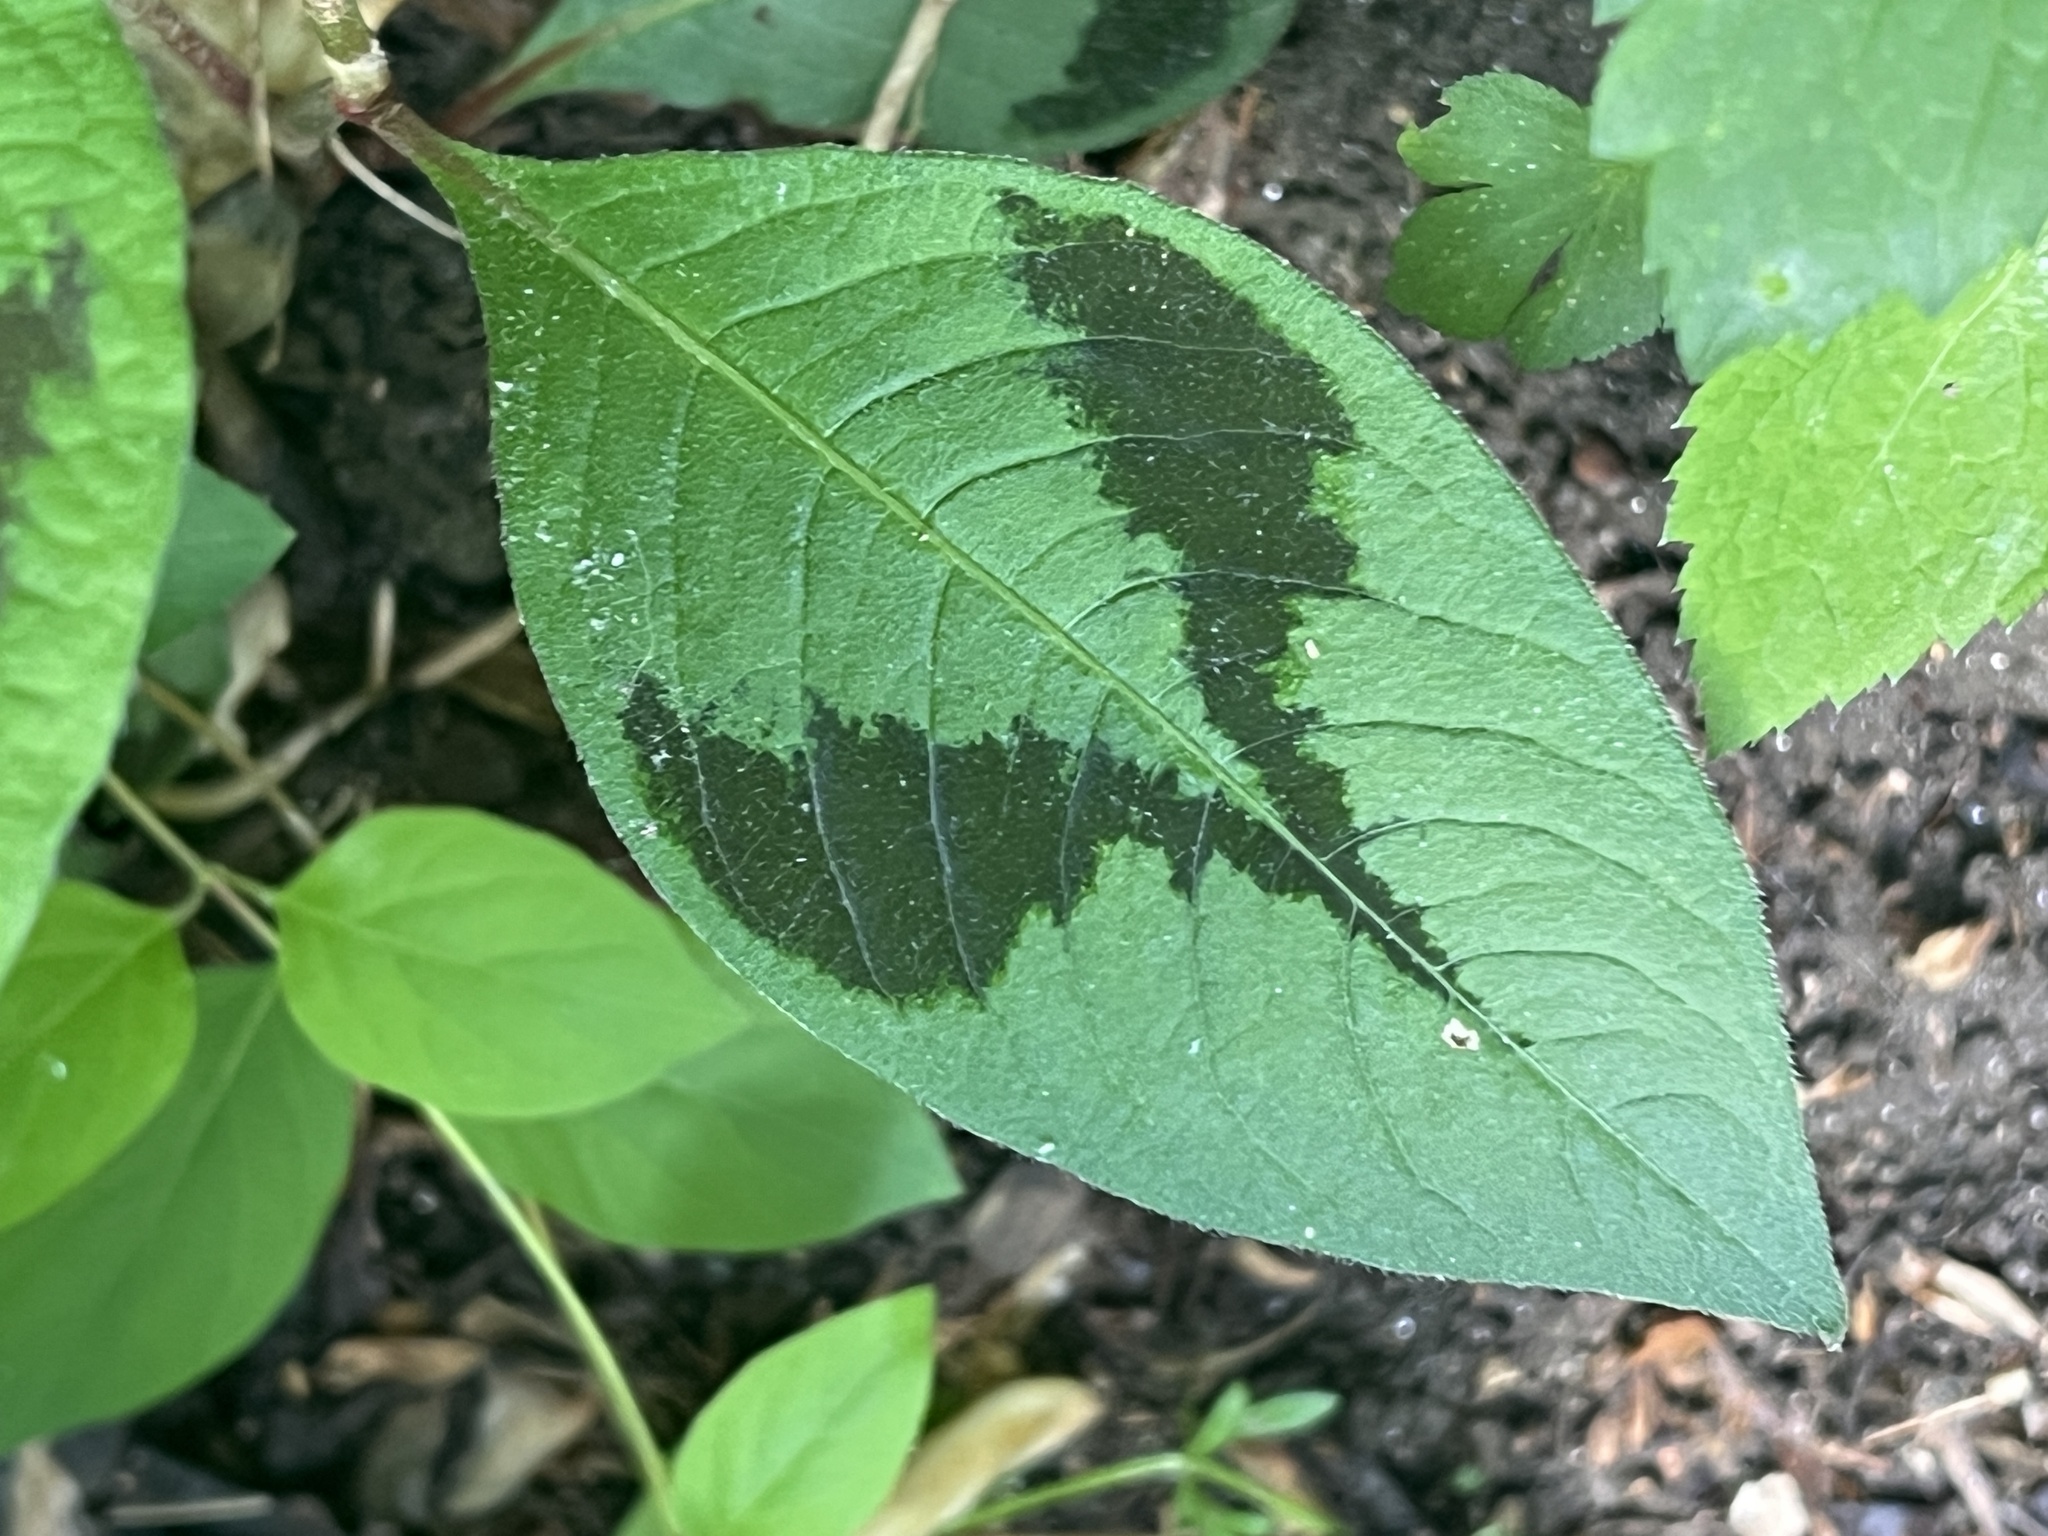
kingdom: Plantae
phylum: Tracheophyta
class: Magnoliopsida
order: Caryophyllales
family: Polygonaceae
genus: Persicaria
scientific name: Persicaria filiformis
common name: Asian jumpseed
